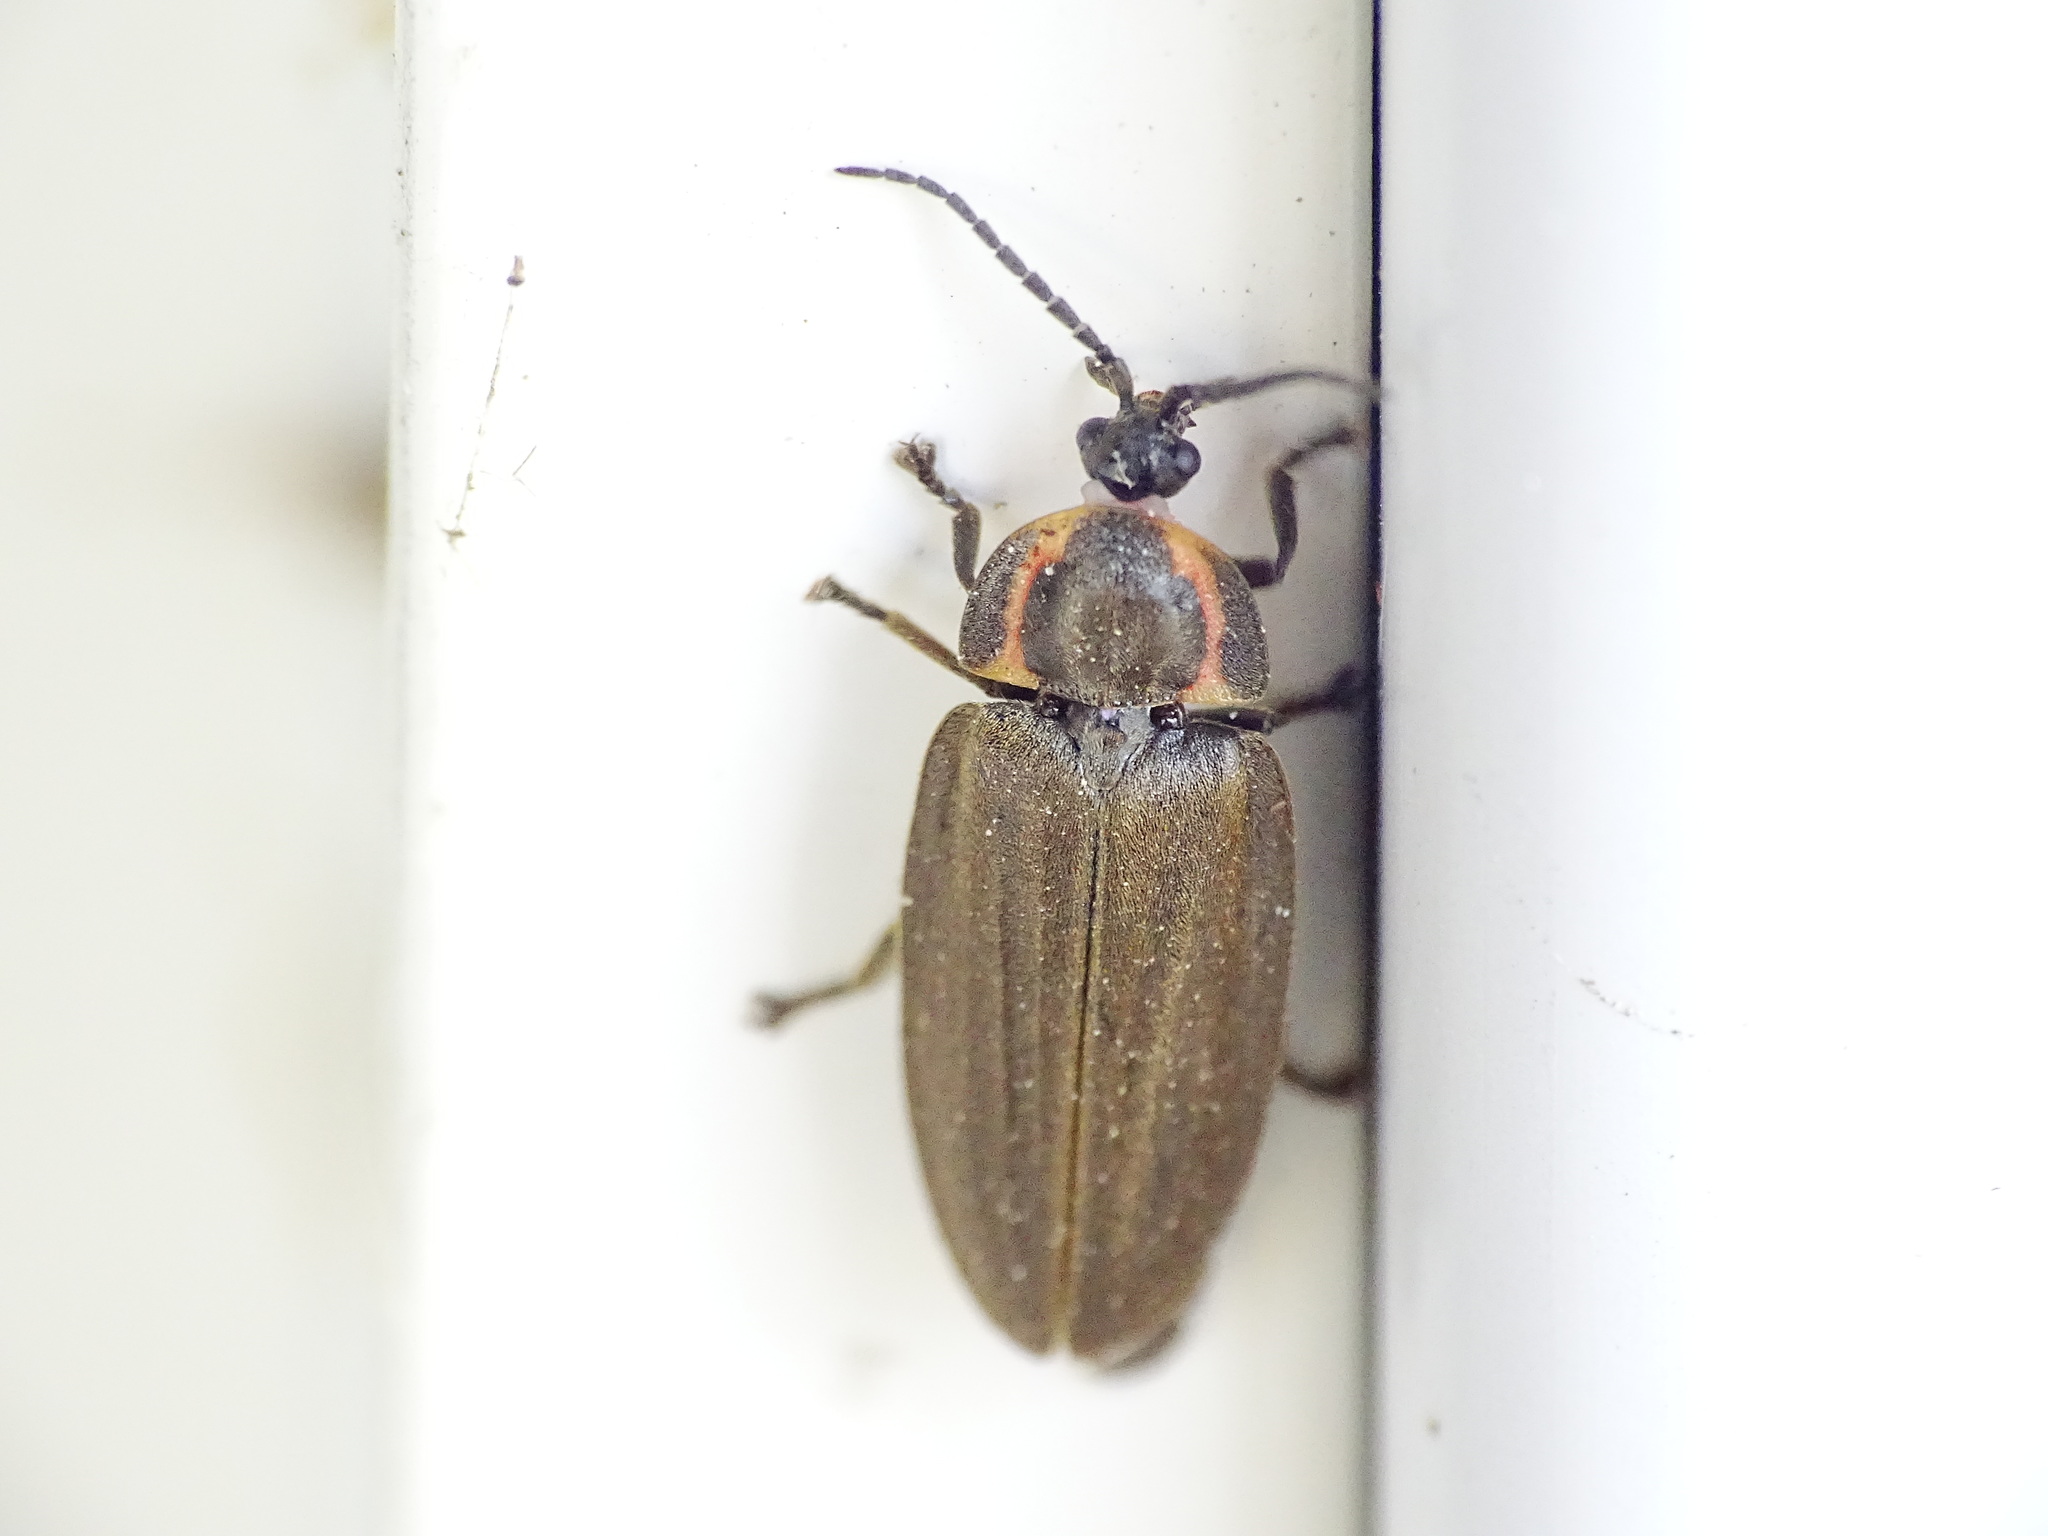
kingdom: Animalia
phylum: Arthropoda
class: Insecta
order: Coleoptera
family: Lampyridae
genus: Photinus
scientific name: Photinus corrusca
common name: Winter firefly
